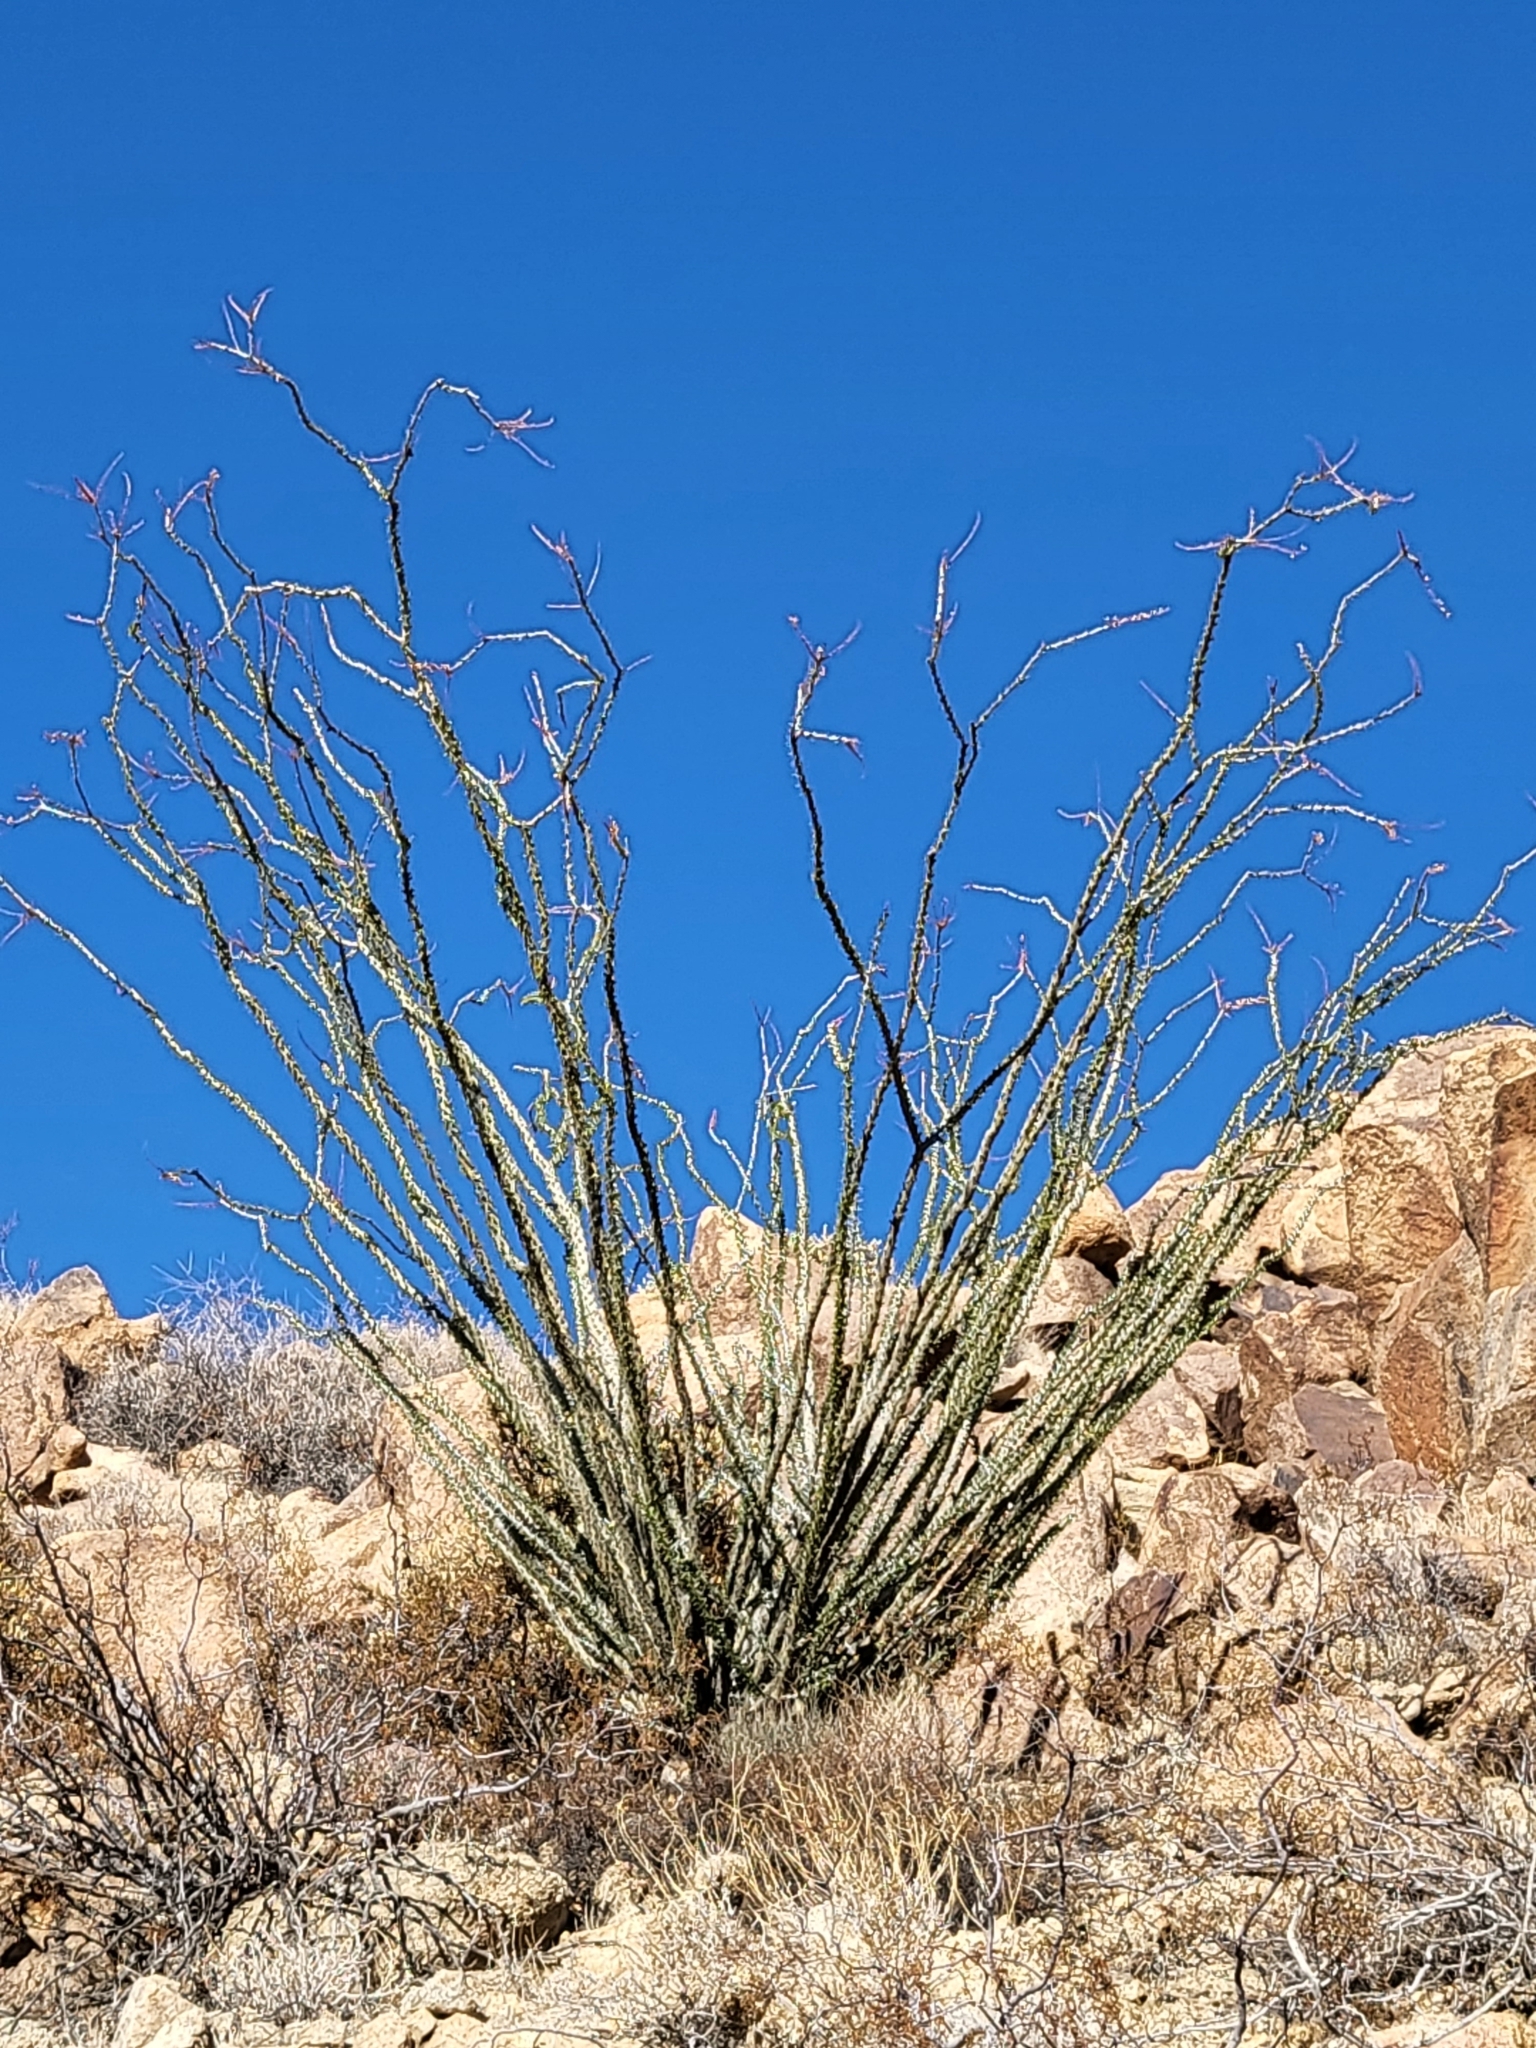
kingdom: Plantae
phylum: Tracheophyta
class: Magnoliopsida
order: Ericales
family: Fouquieriaceae
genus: Fouquieria
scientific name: Fouquieria splendens
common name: Vine-cactus
